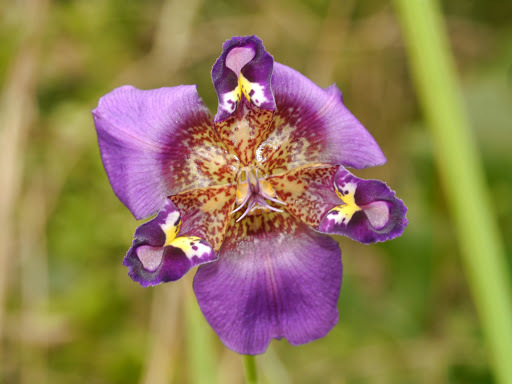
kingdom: Plantae
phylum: Tracheophyta
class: Liliopsida
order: Asparagales
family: Iridaceae
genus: Alophia
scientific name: Alophia drummondii
